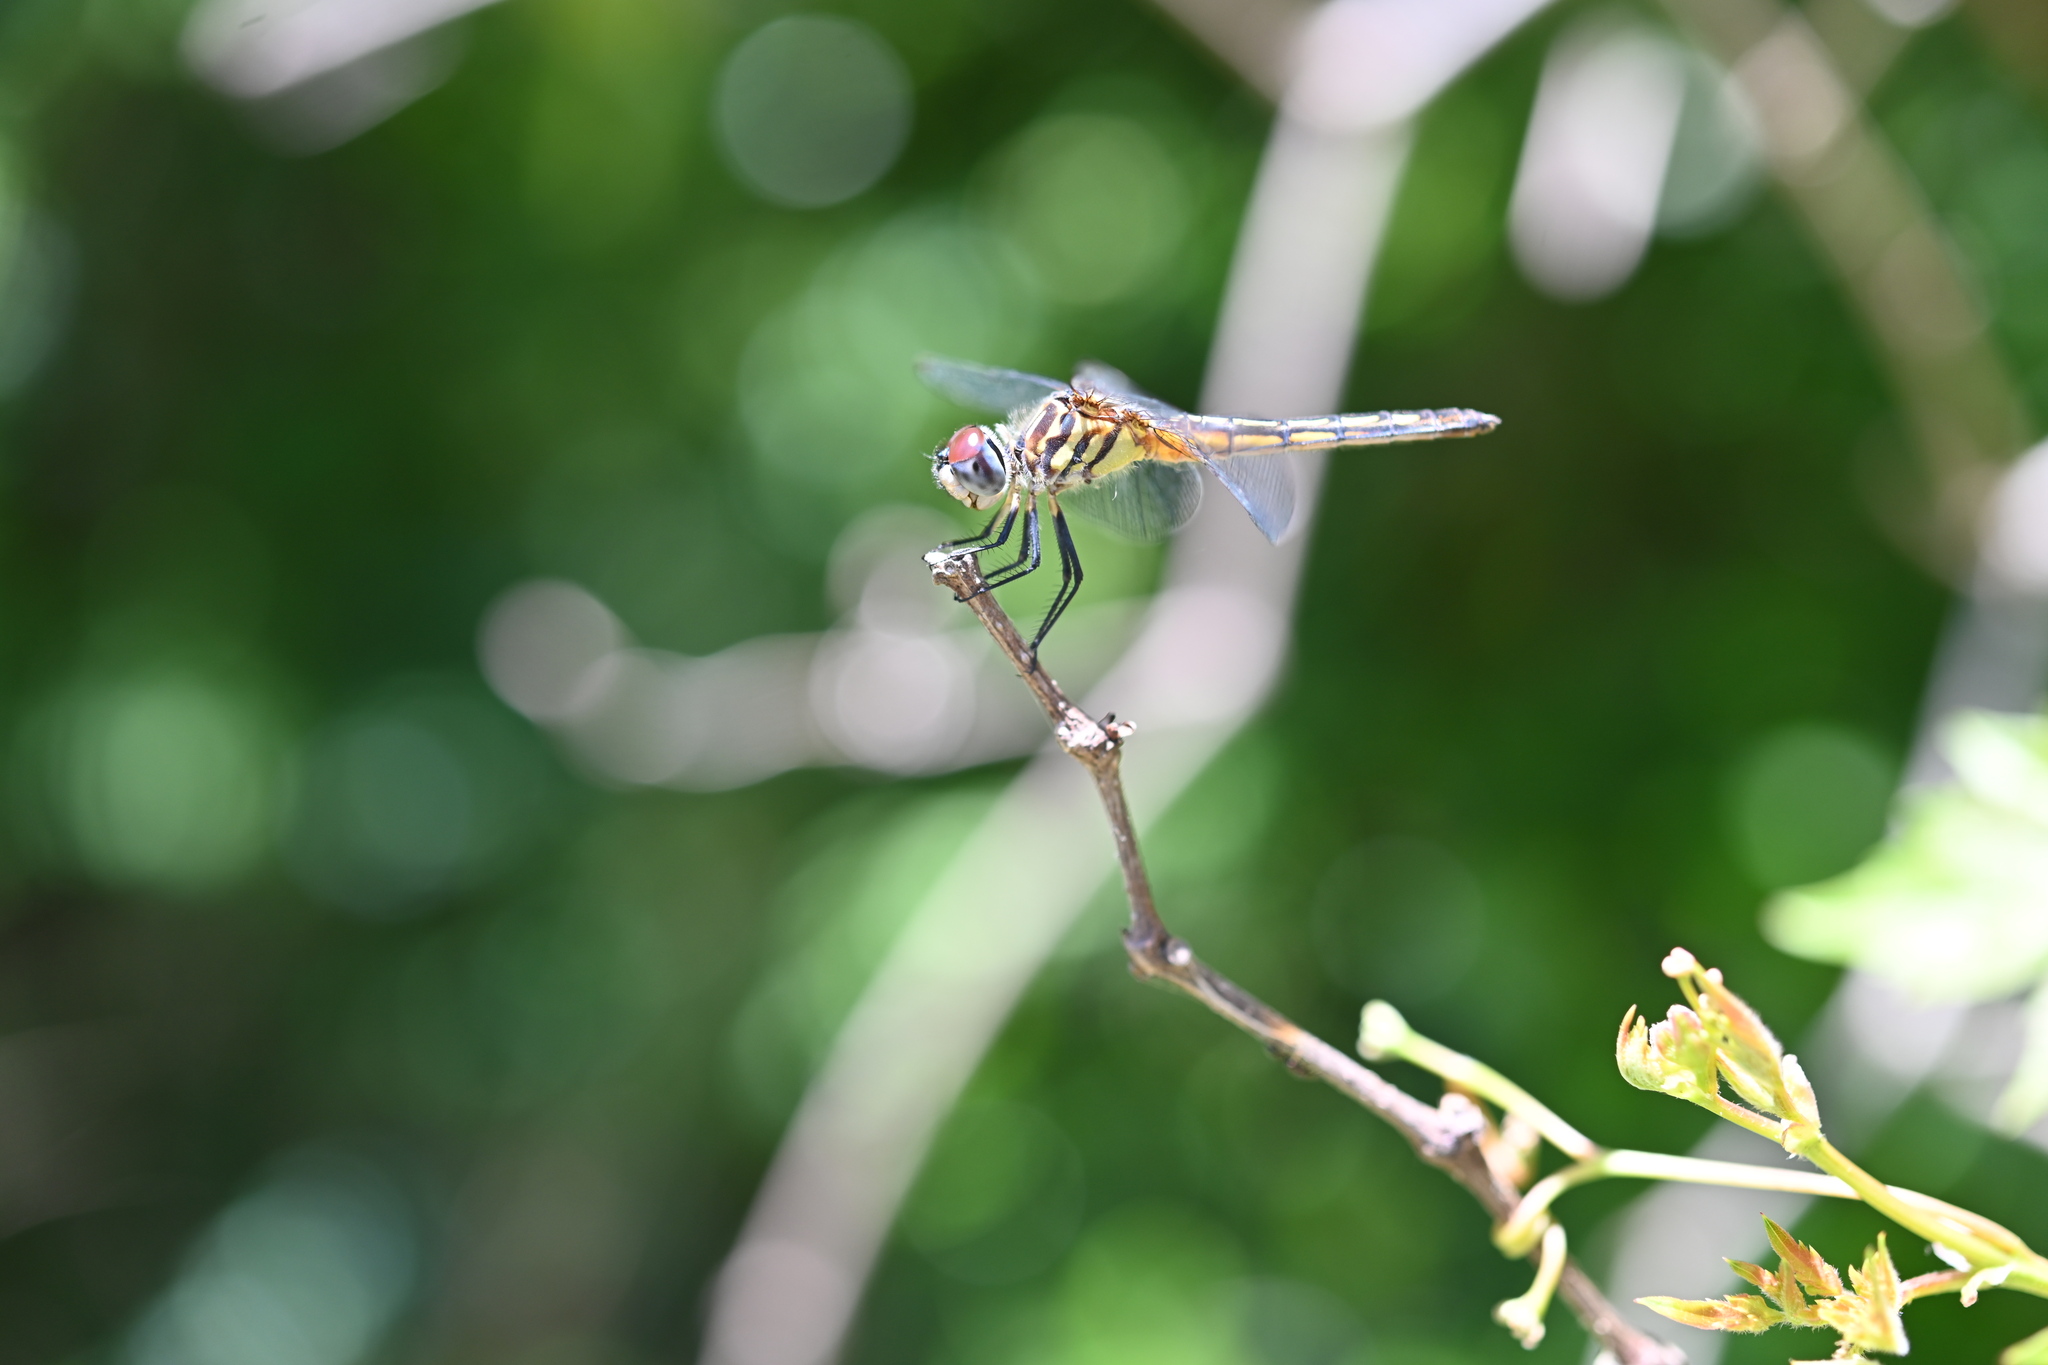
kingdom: Animalia
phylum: Arthropoda
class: Insecta
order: Odonata
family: Libellulidae
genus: Pachydiplax
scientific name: Pachydiplax longipennis
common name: Blue dasher
